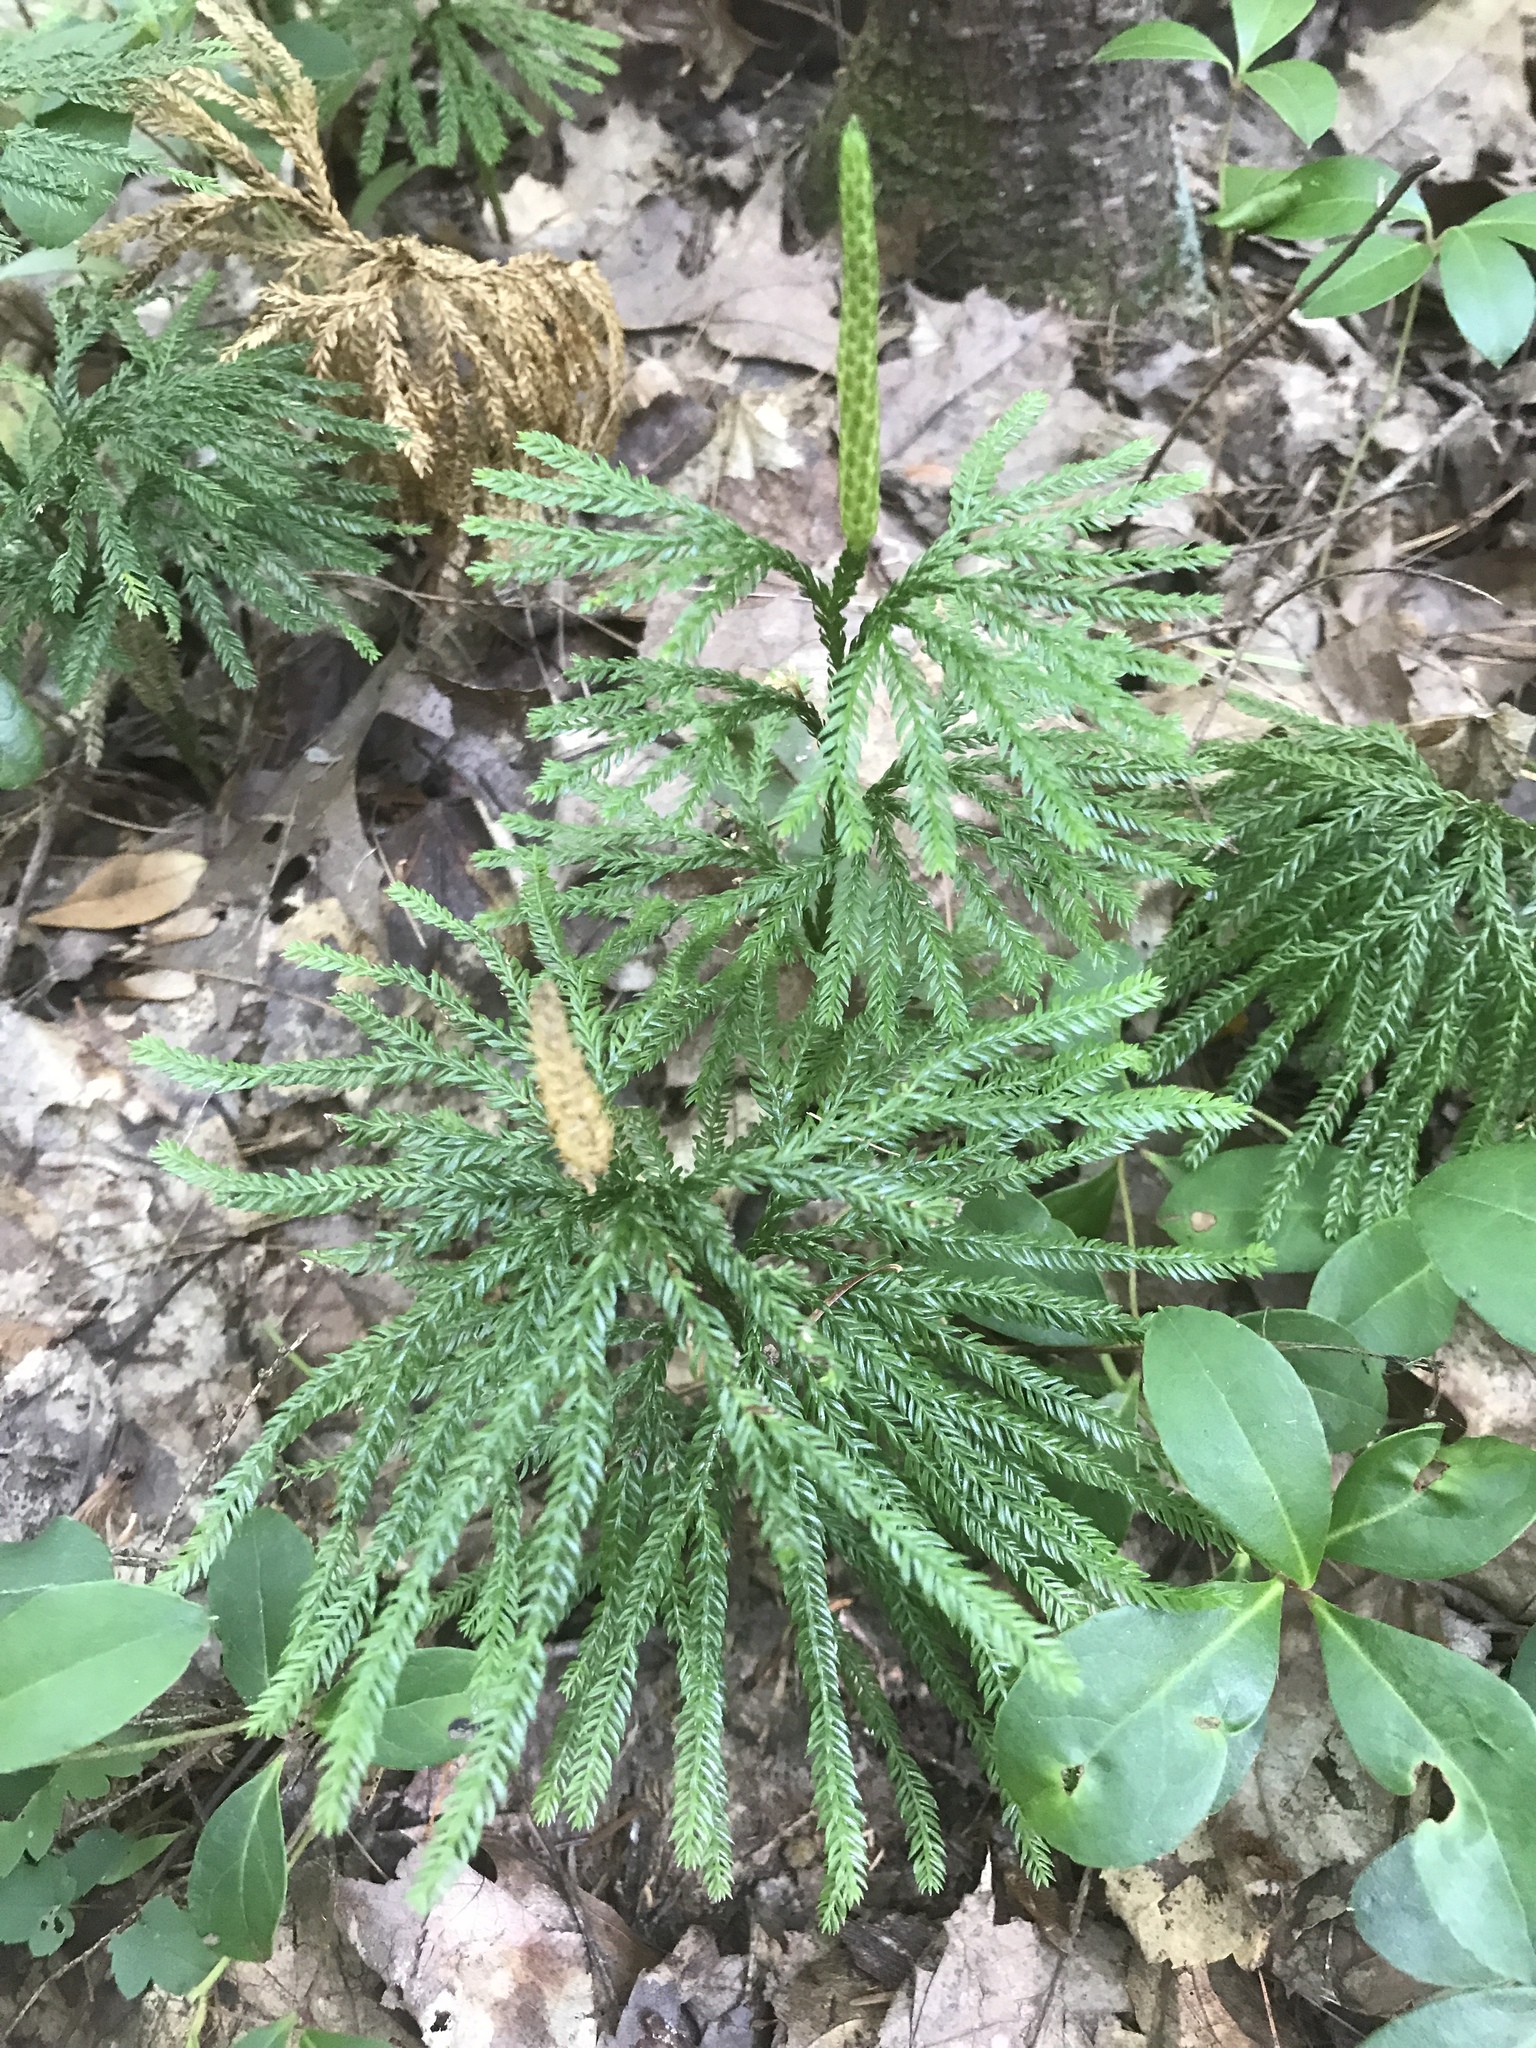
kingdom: Plantae
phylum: Tracheophyta
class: Lycopodiopsida
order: Lycopodiales
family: Lycopodiaceae
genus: Dendrolycopodium
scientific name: Dendrolycopodium obscurum
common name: Common ground-pine
